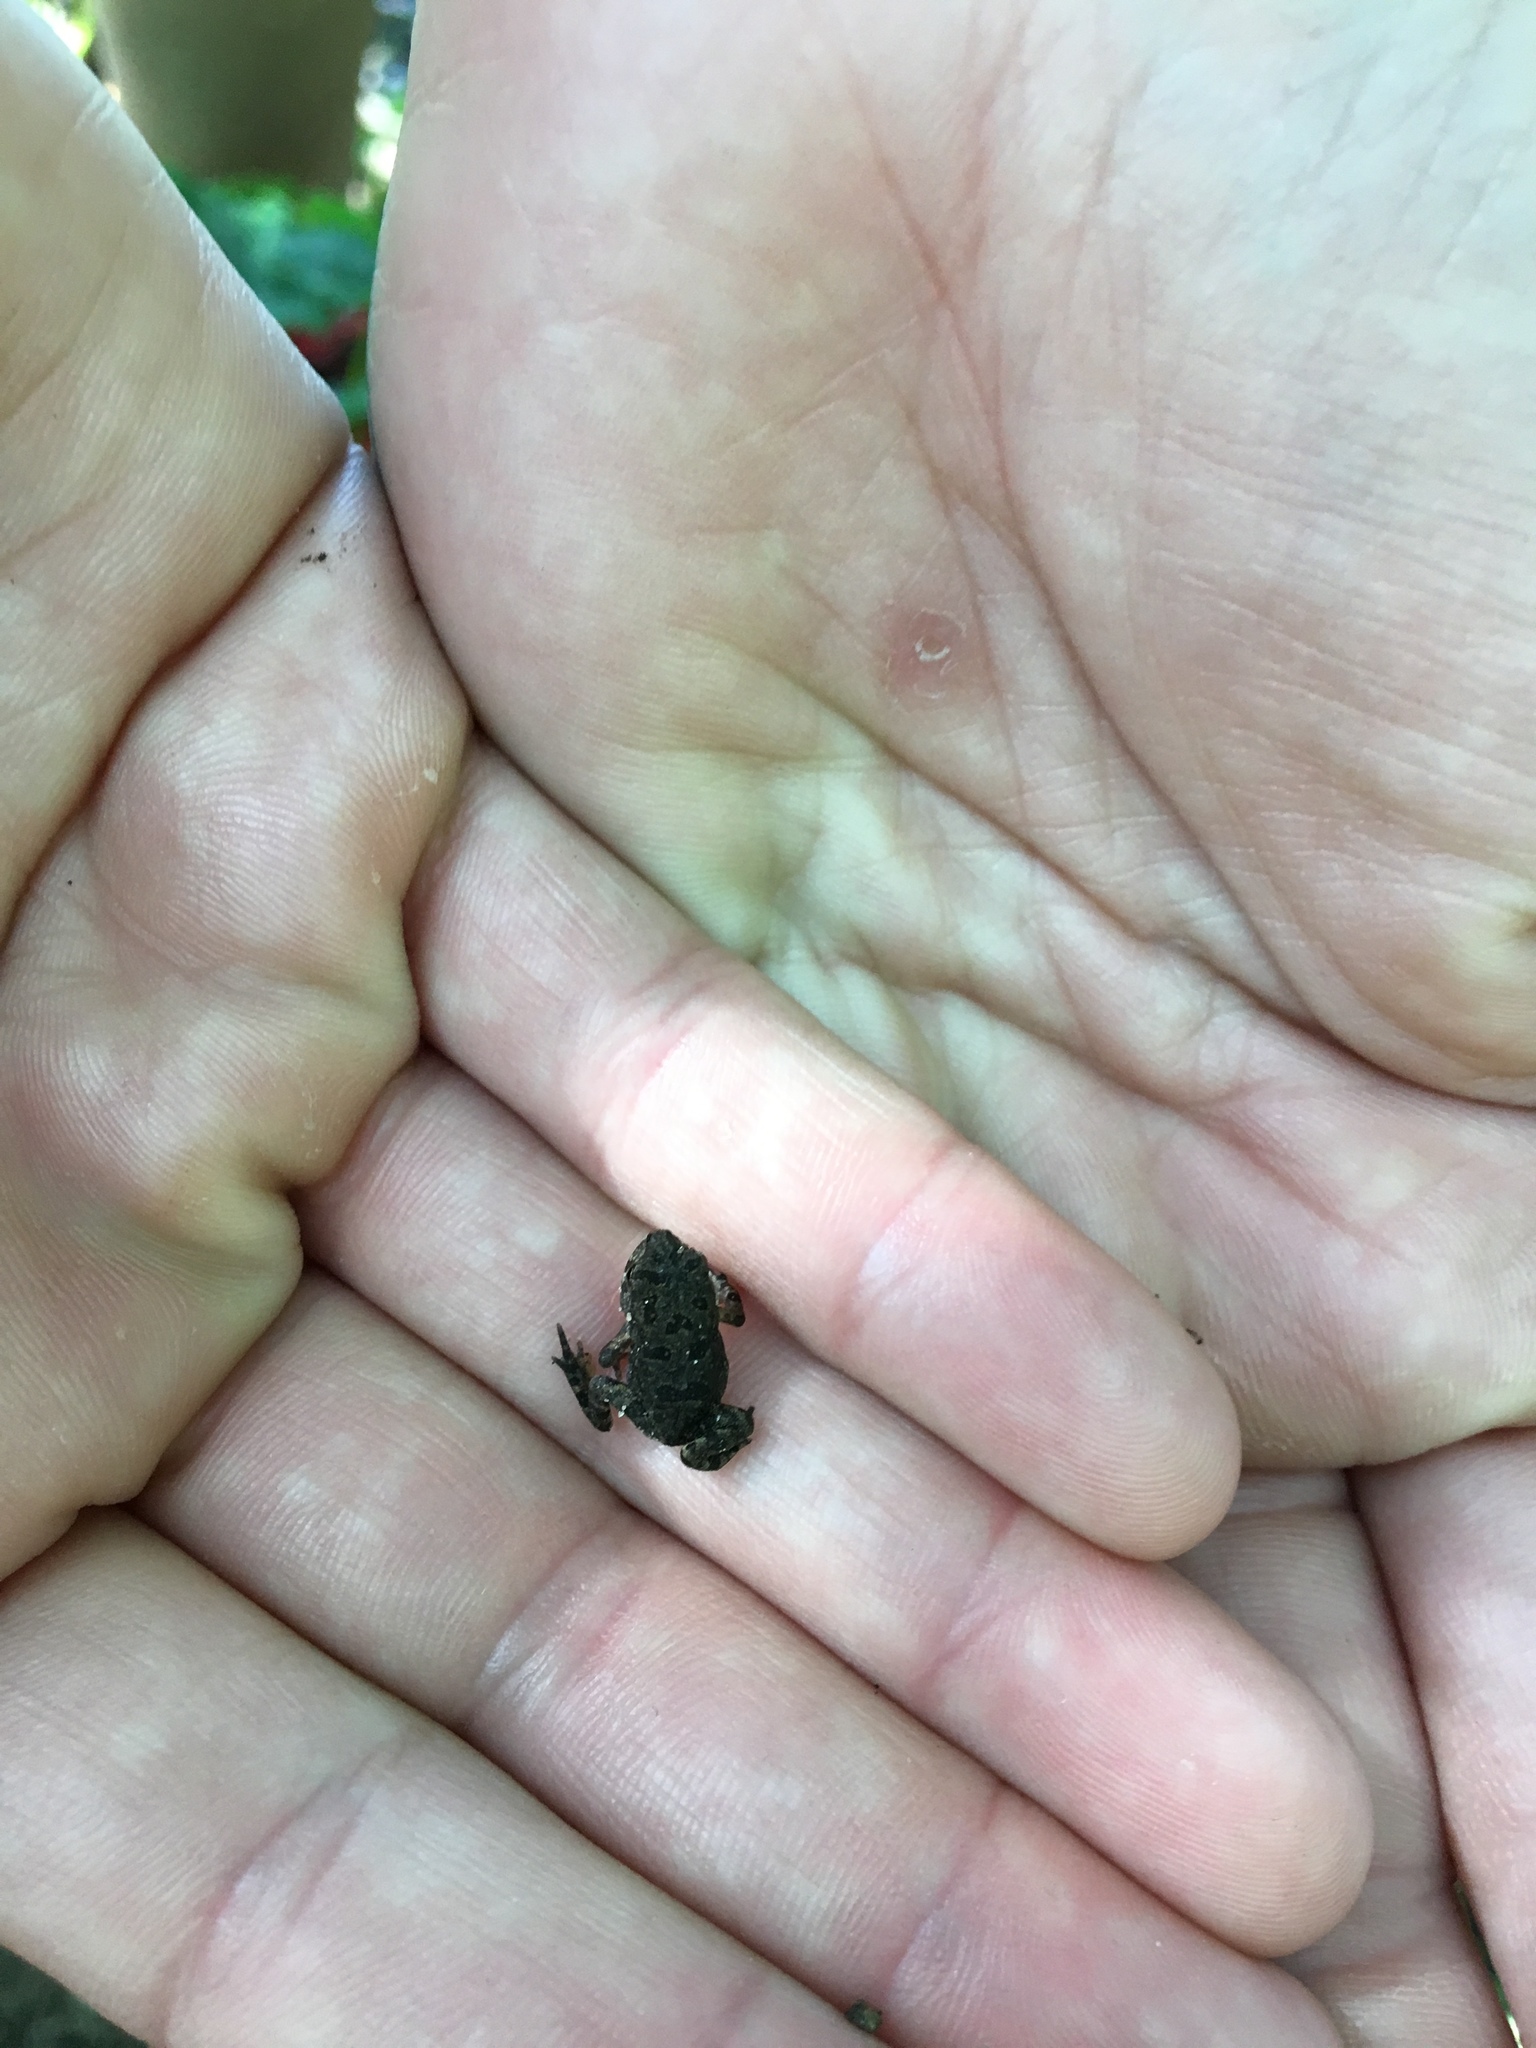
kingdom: Animalia
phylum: Chordata
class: Amphibia
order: Anura
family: Bufonidae
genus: Anaxyrus
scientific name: Anaxyrus terrestris
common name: Southern toad
